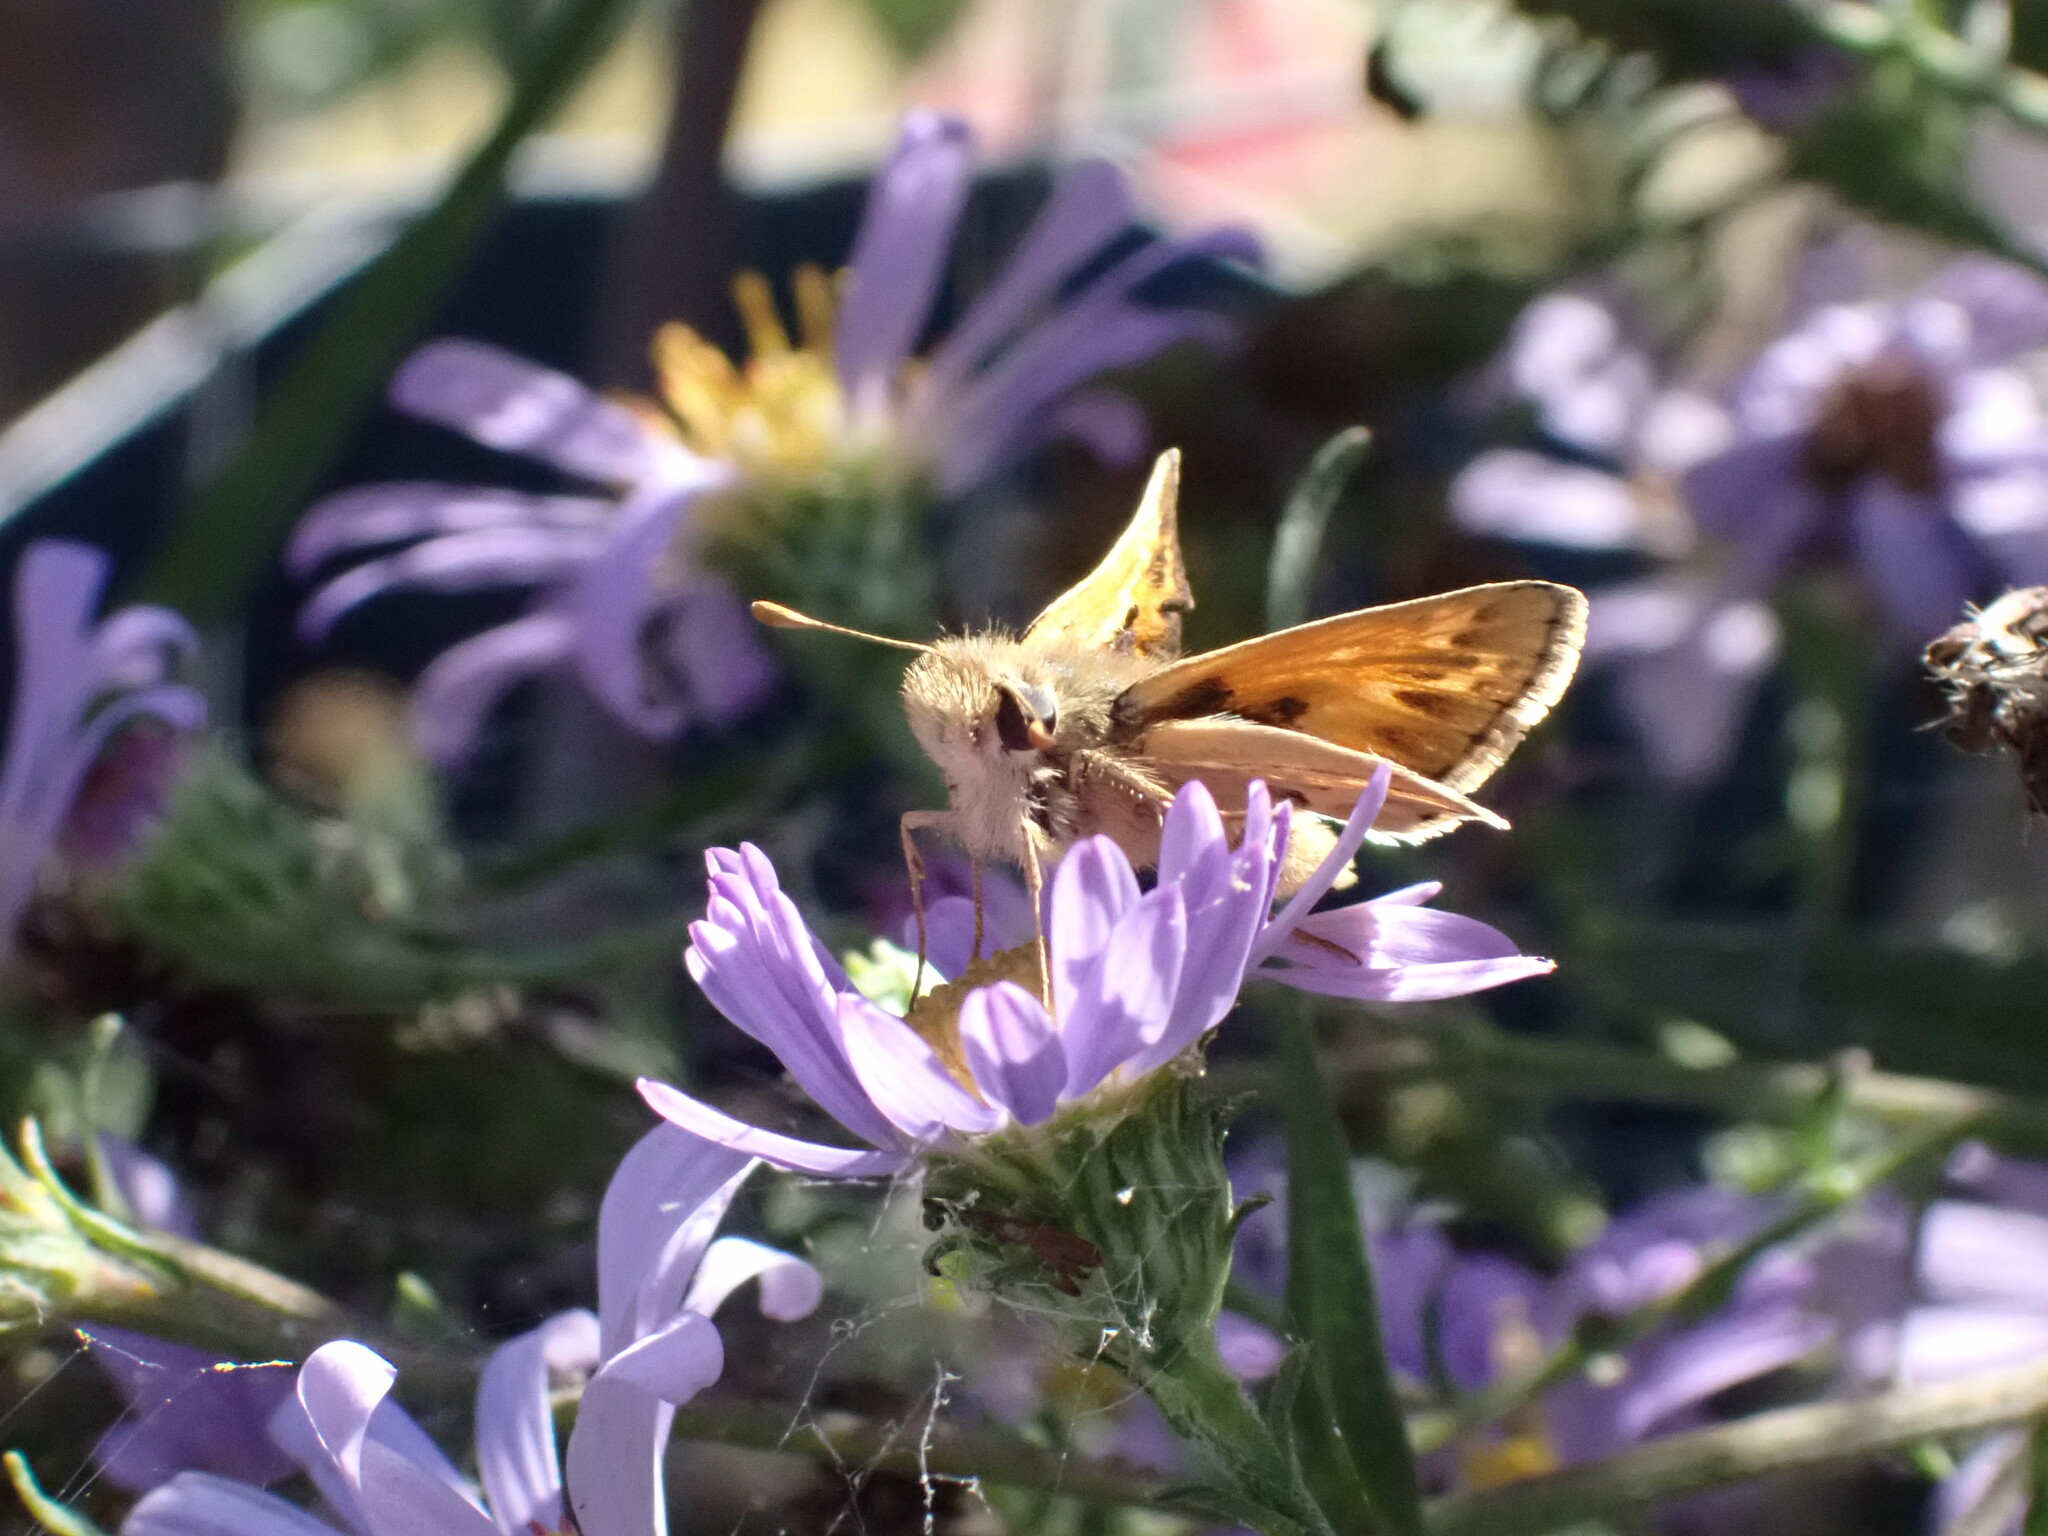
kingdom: Animalia
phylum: Arthropoda
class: Insecta
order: Lepidoptera
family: Hesperiidae
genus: Polites
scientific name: Polites sabuleti
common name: Sandhill skipper
